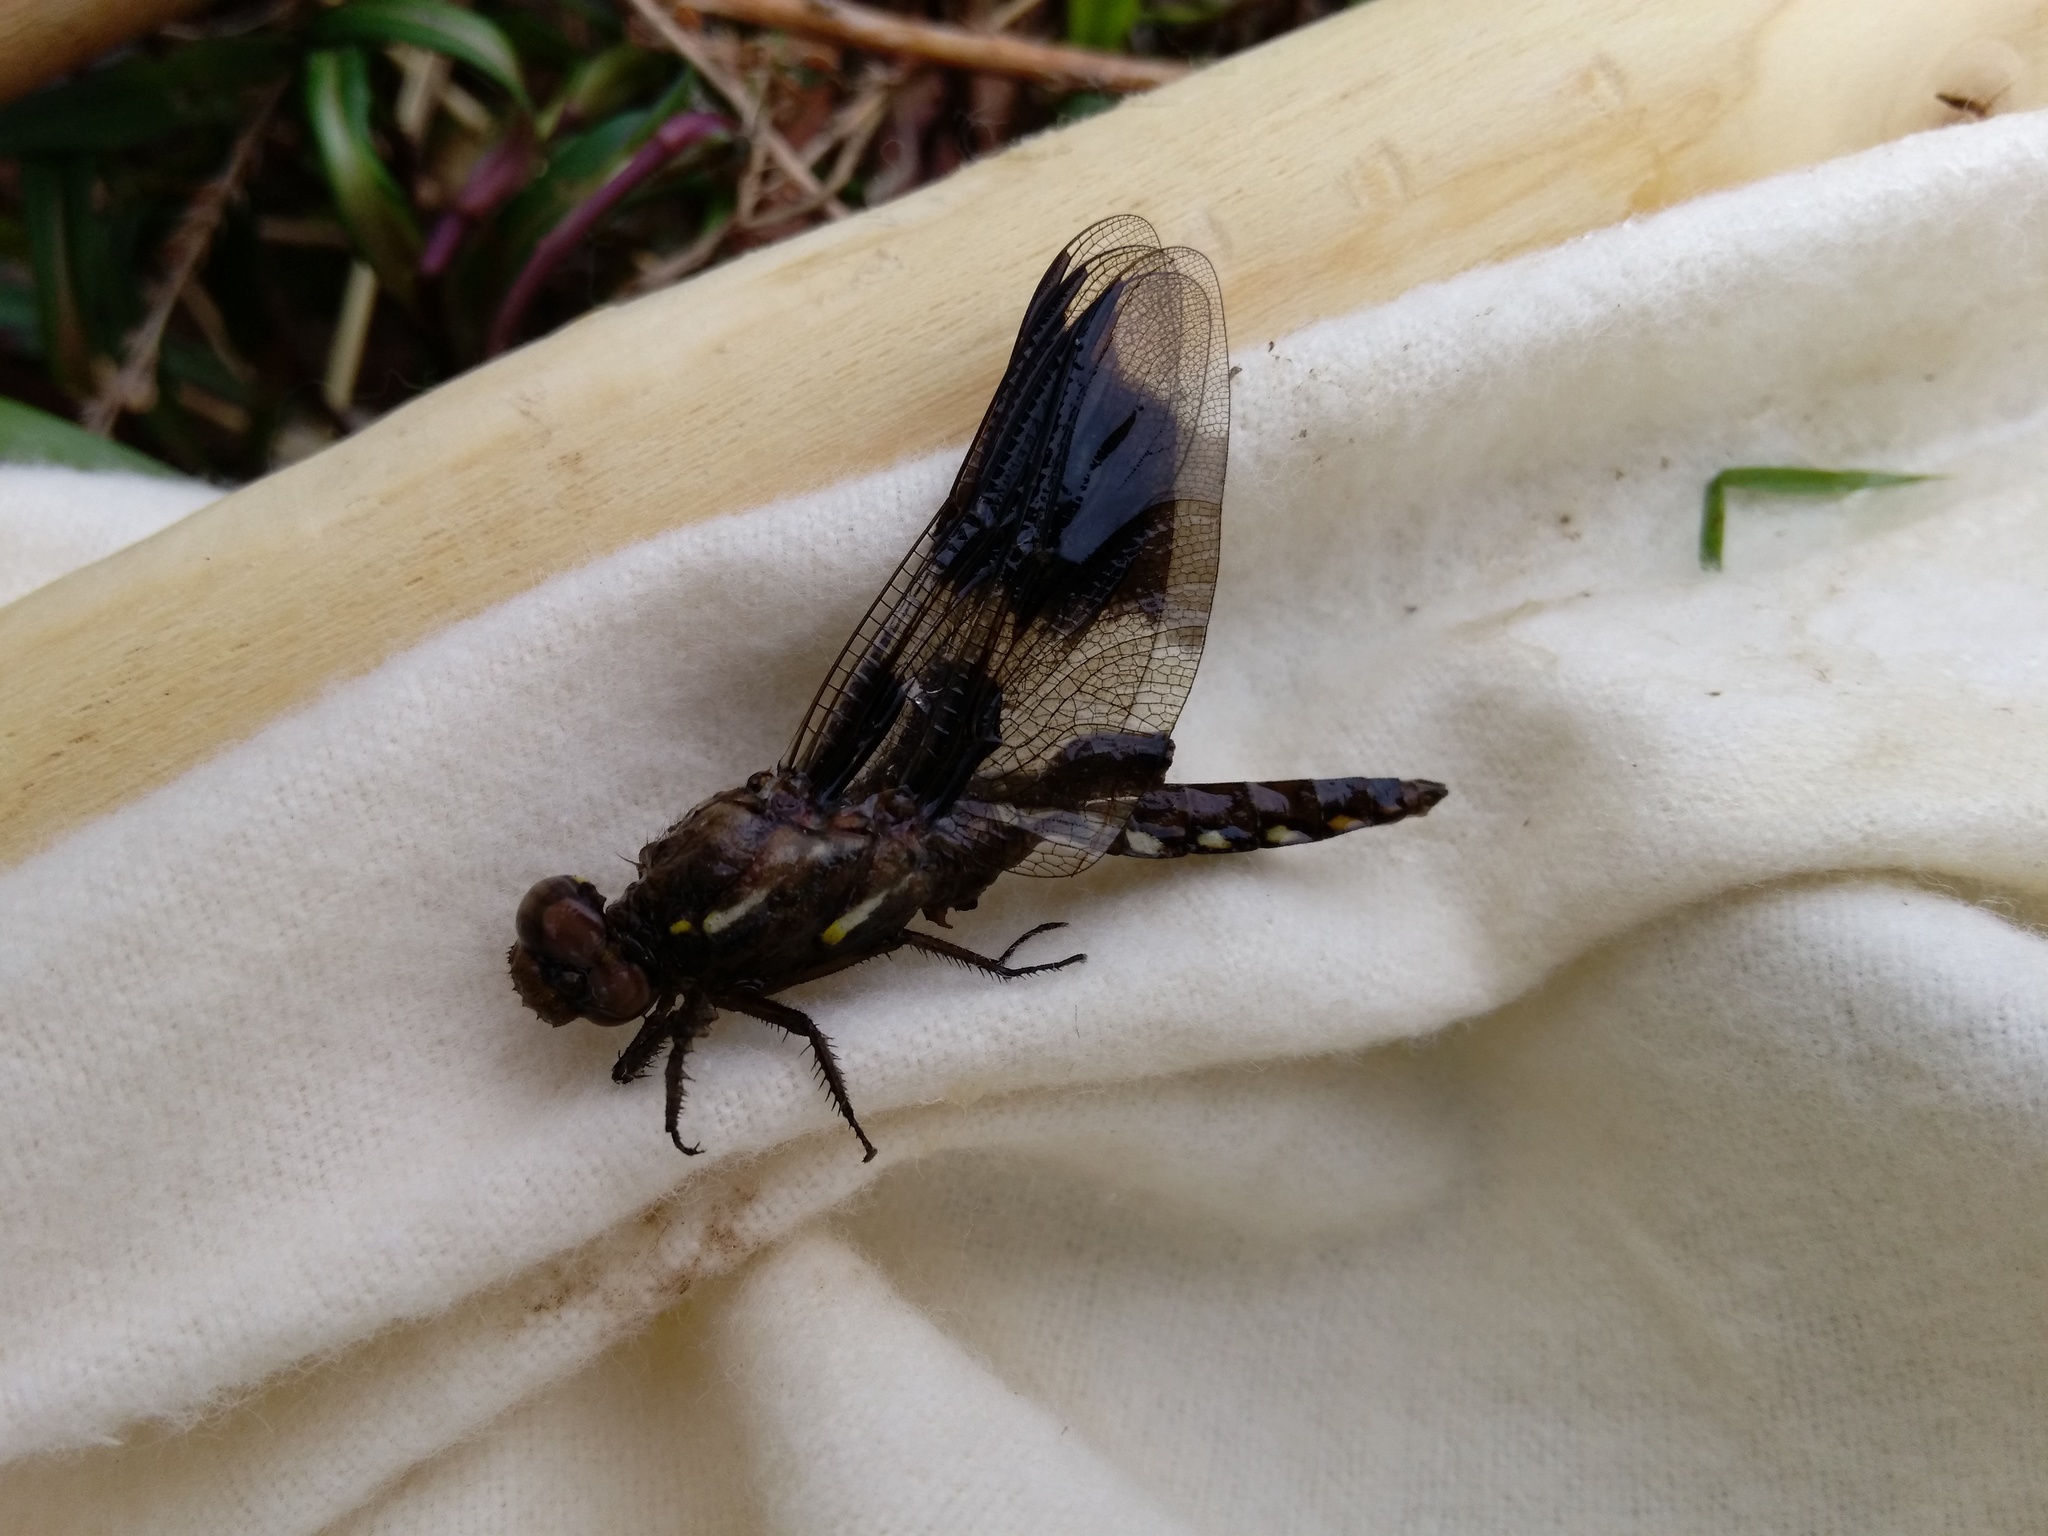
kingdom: Animalia
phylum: Arthropoda
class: Insecta
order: Odonata
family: Libellulidae
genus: Plathemis
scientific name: Plathemis lydia
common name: Common whitetail
